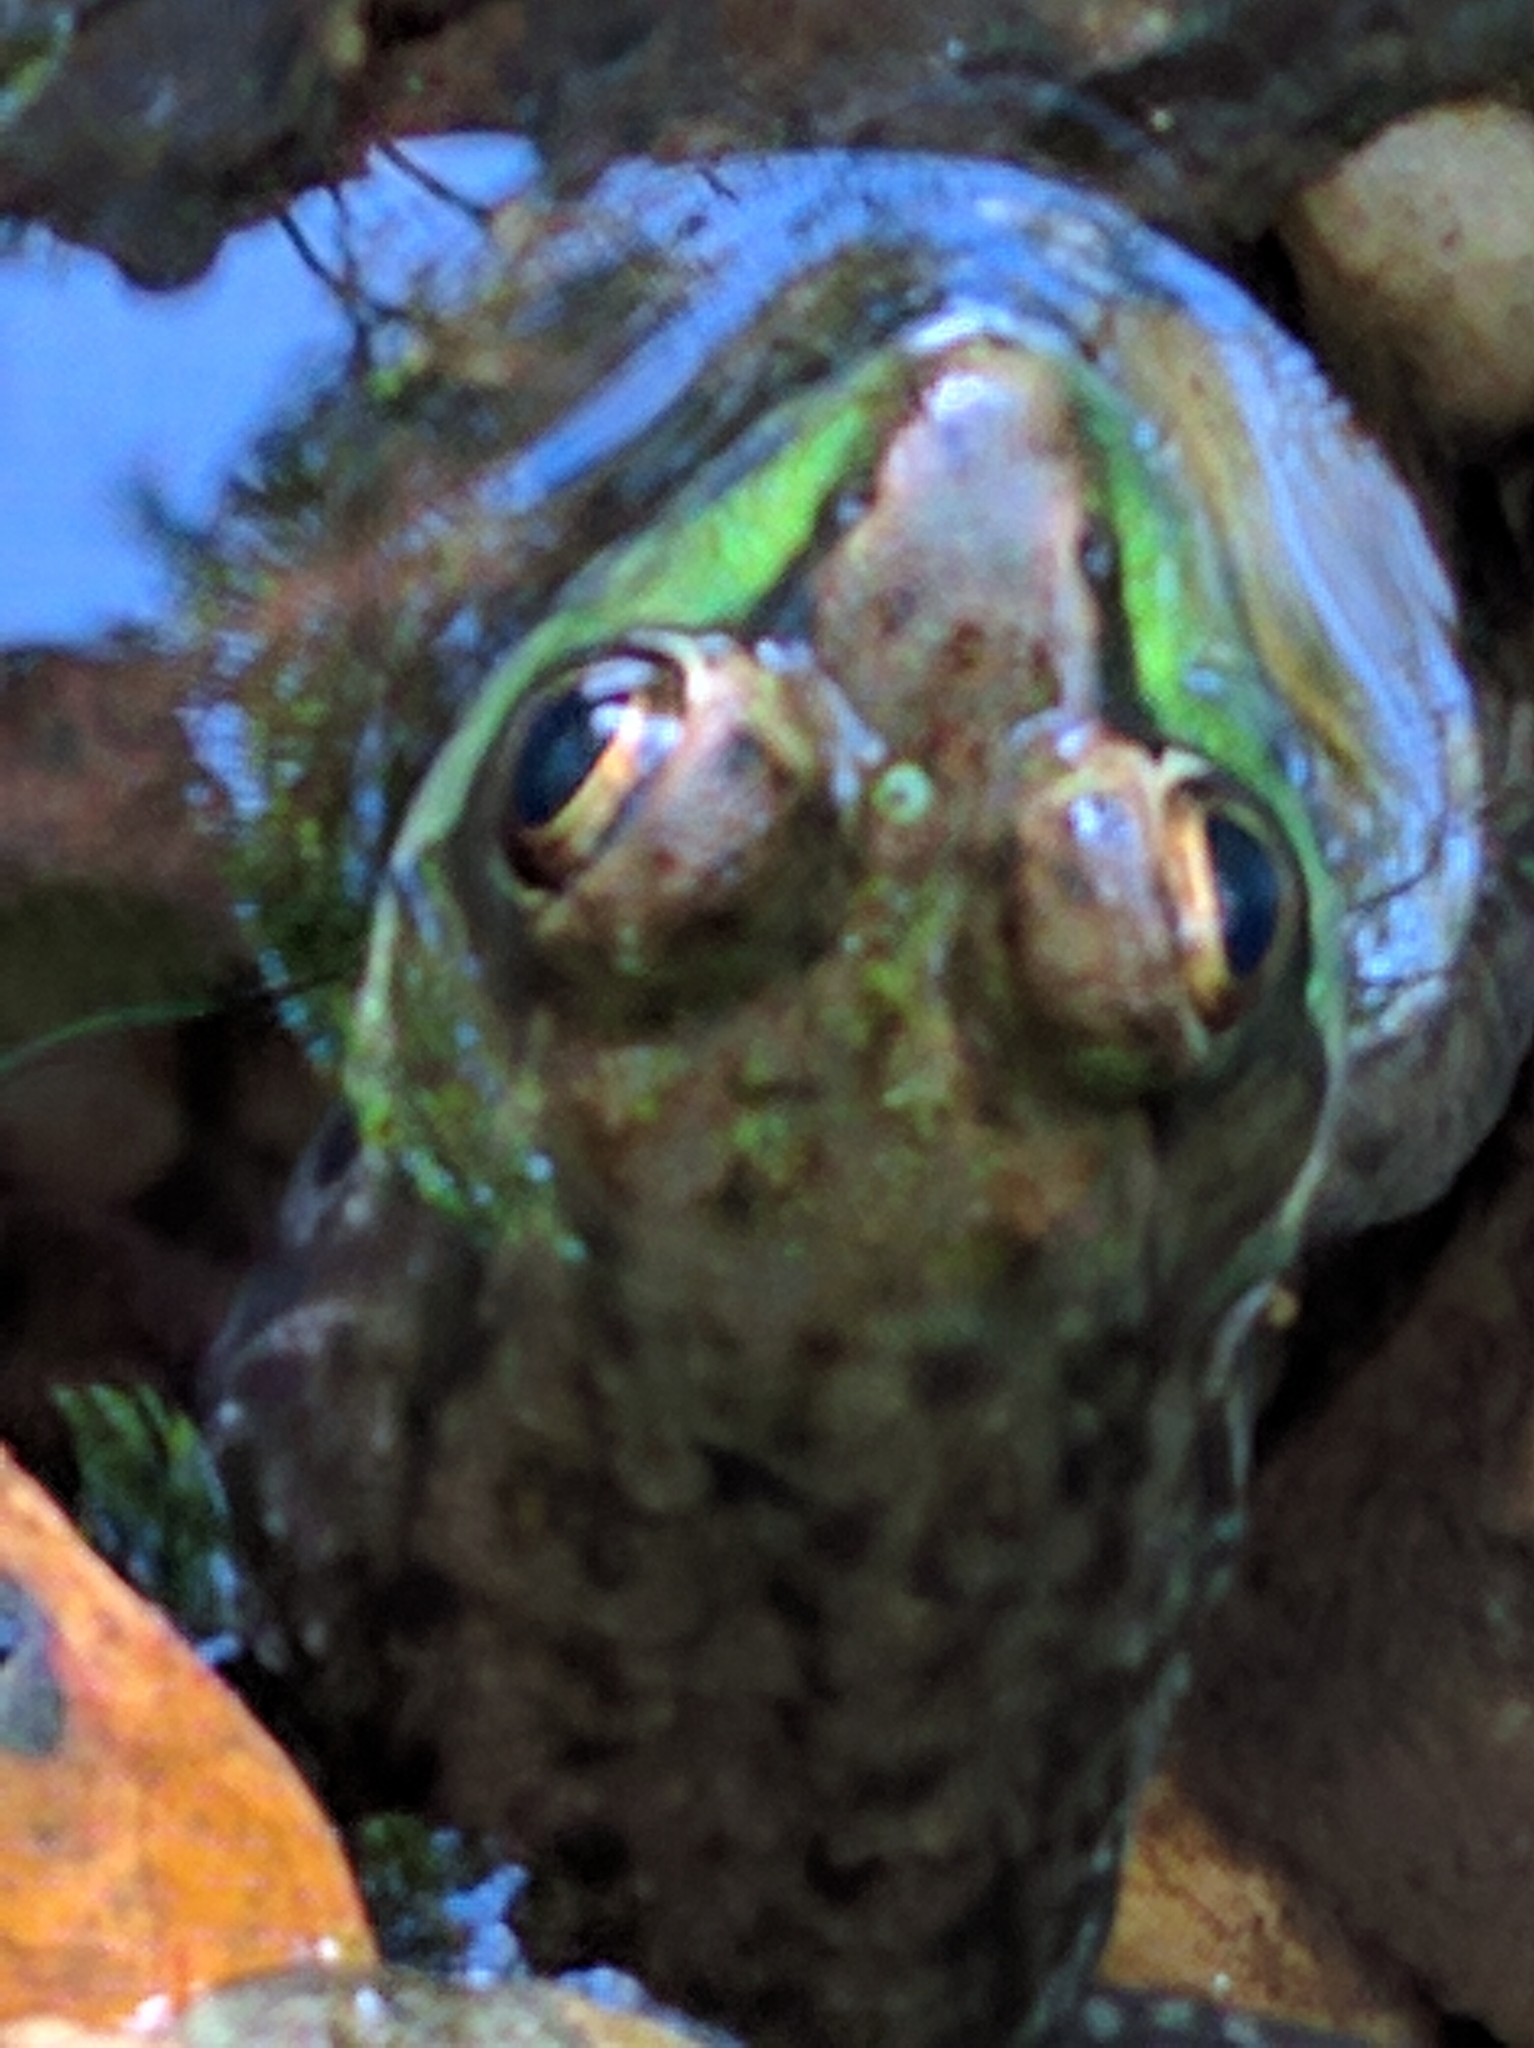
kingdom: Animalia
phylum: Chordata
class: Amphibia
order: Anura
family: Ranidae
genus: Lithobates
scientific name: Lithobates clamitans
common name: Green frog
